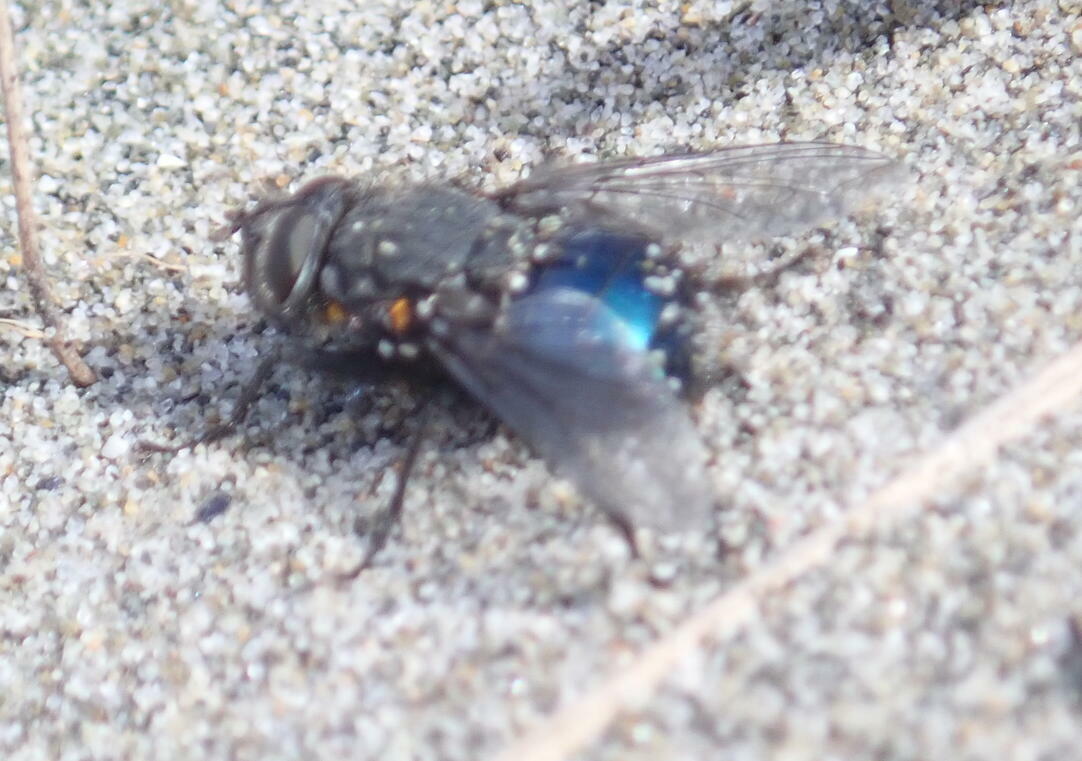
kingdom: Animalia
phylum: Arthropoda
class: Insecta
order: Diptera
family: Calliphoridae
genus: Calliphora
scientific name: Calliphora quadrimaculata
